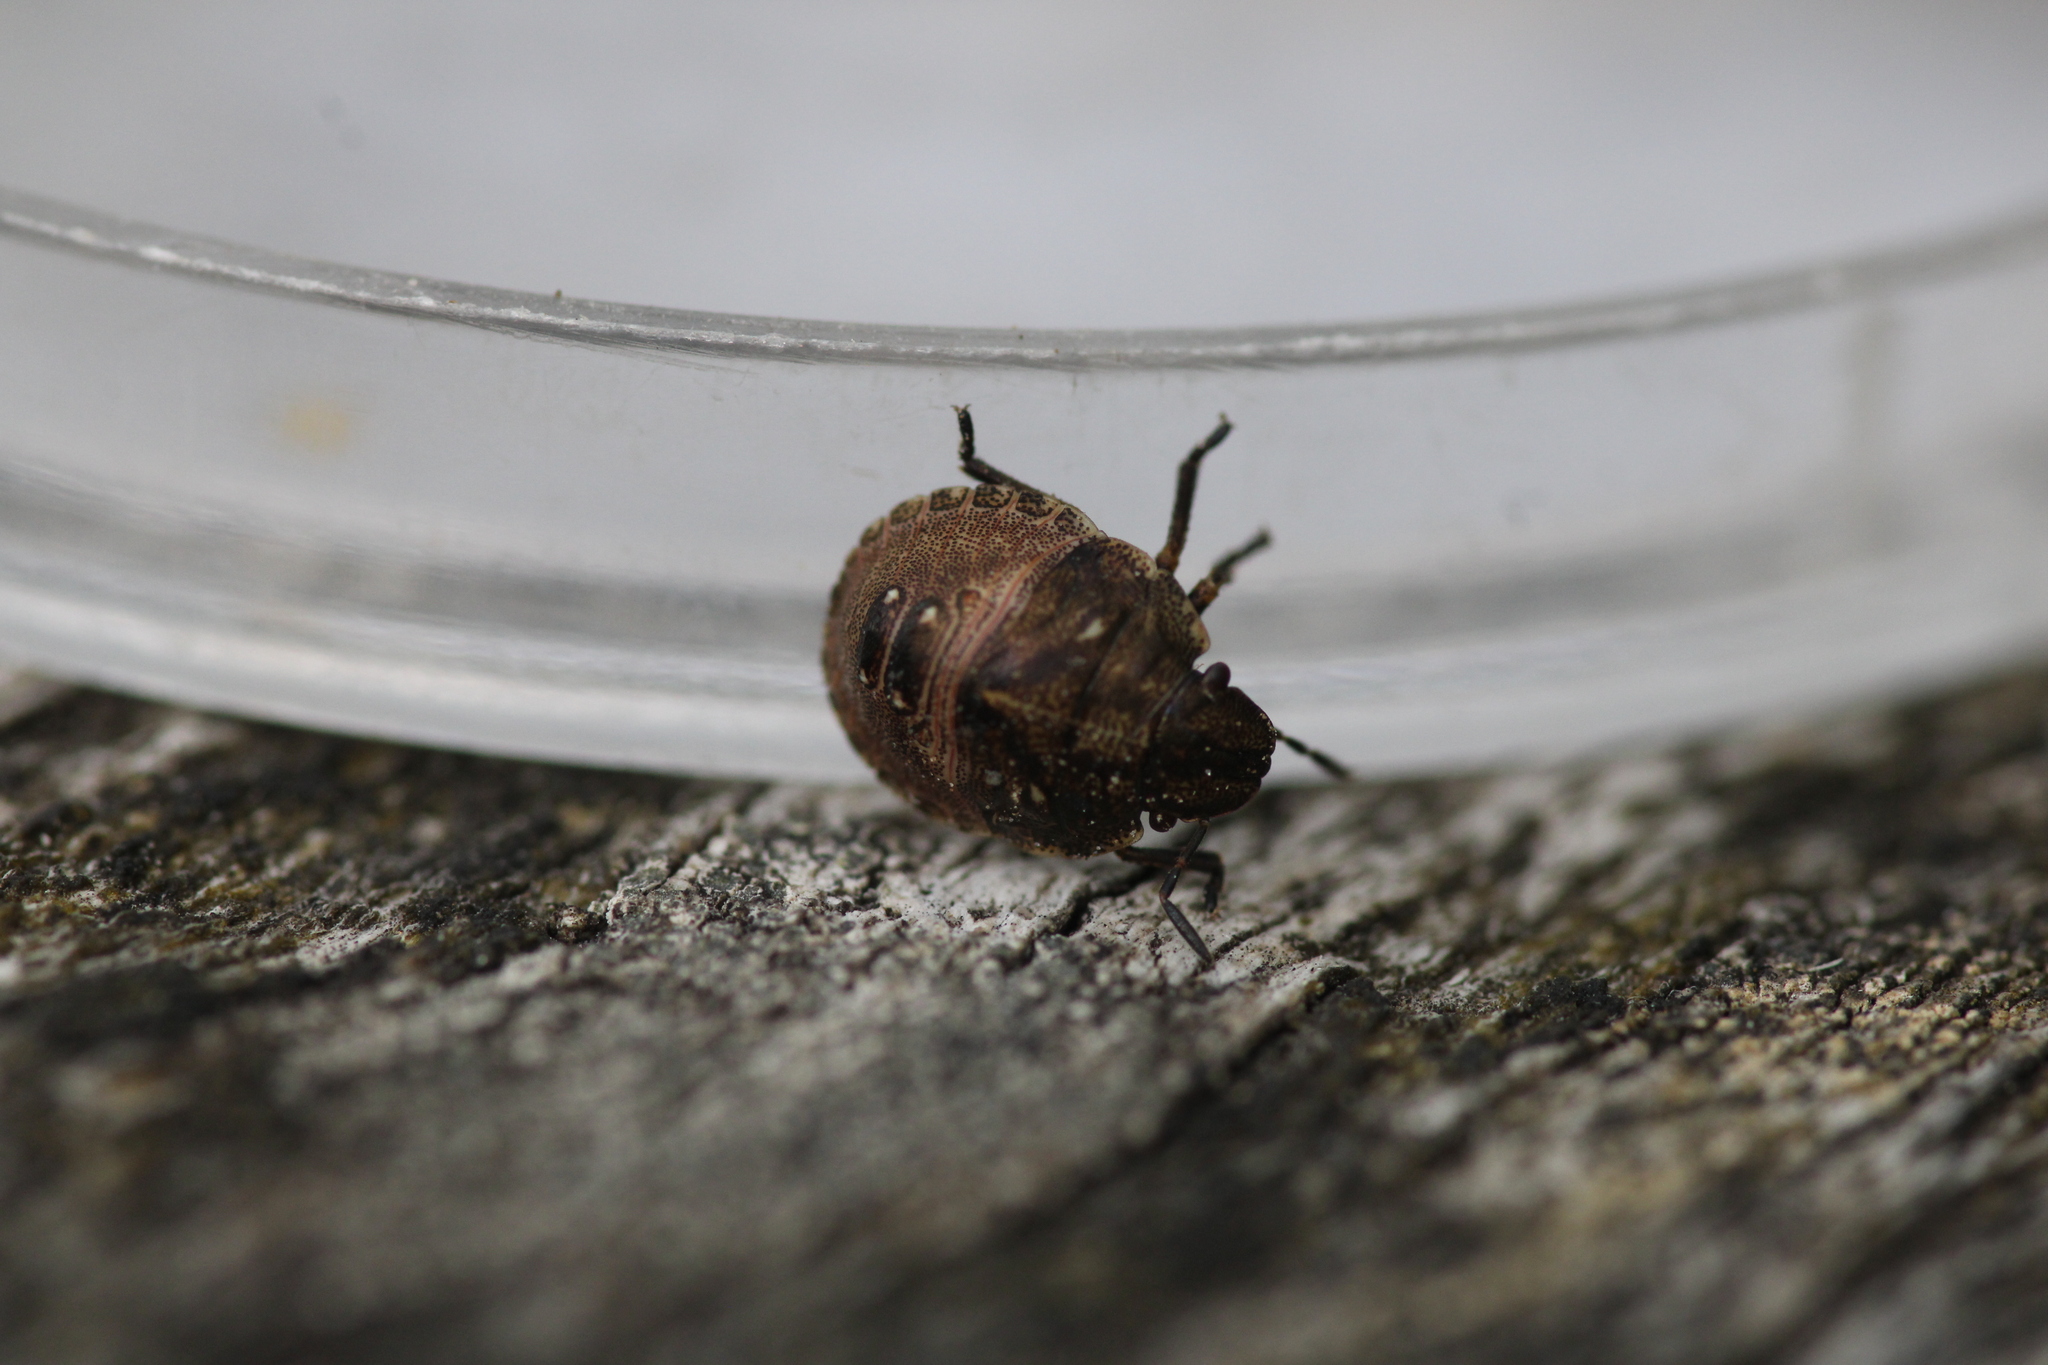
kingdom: Animalia
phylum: Arthropoda
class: Insecta
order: Hemiptera
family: Scutelleridae
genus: Eurygaster
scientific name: Eurygaster testudinaria
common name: Tortoise bug
